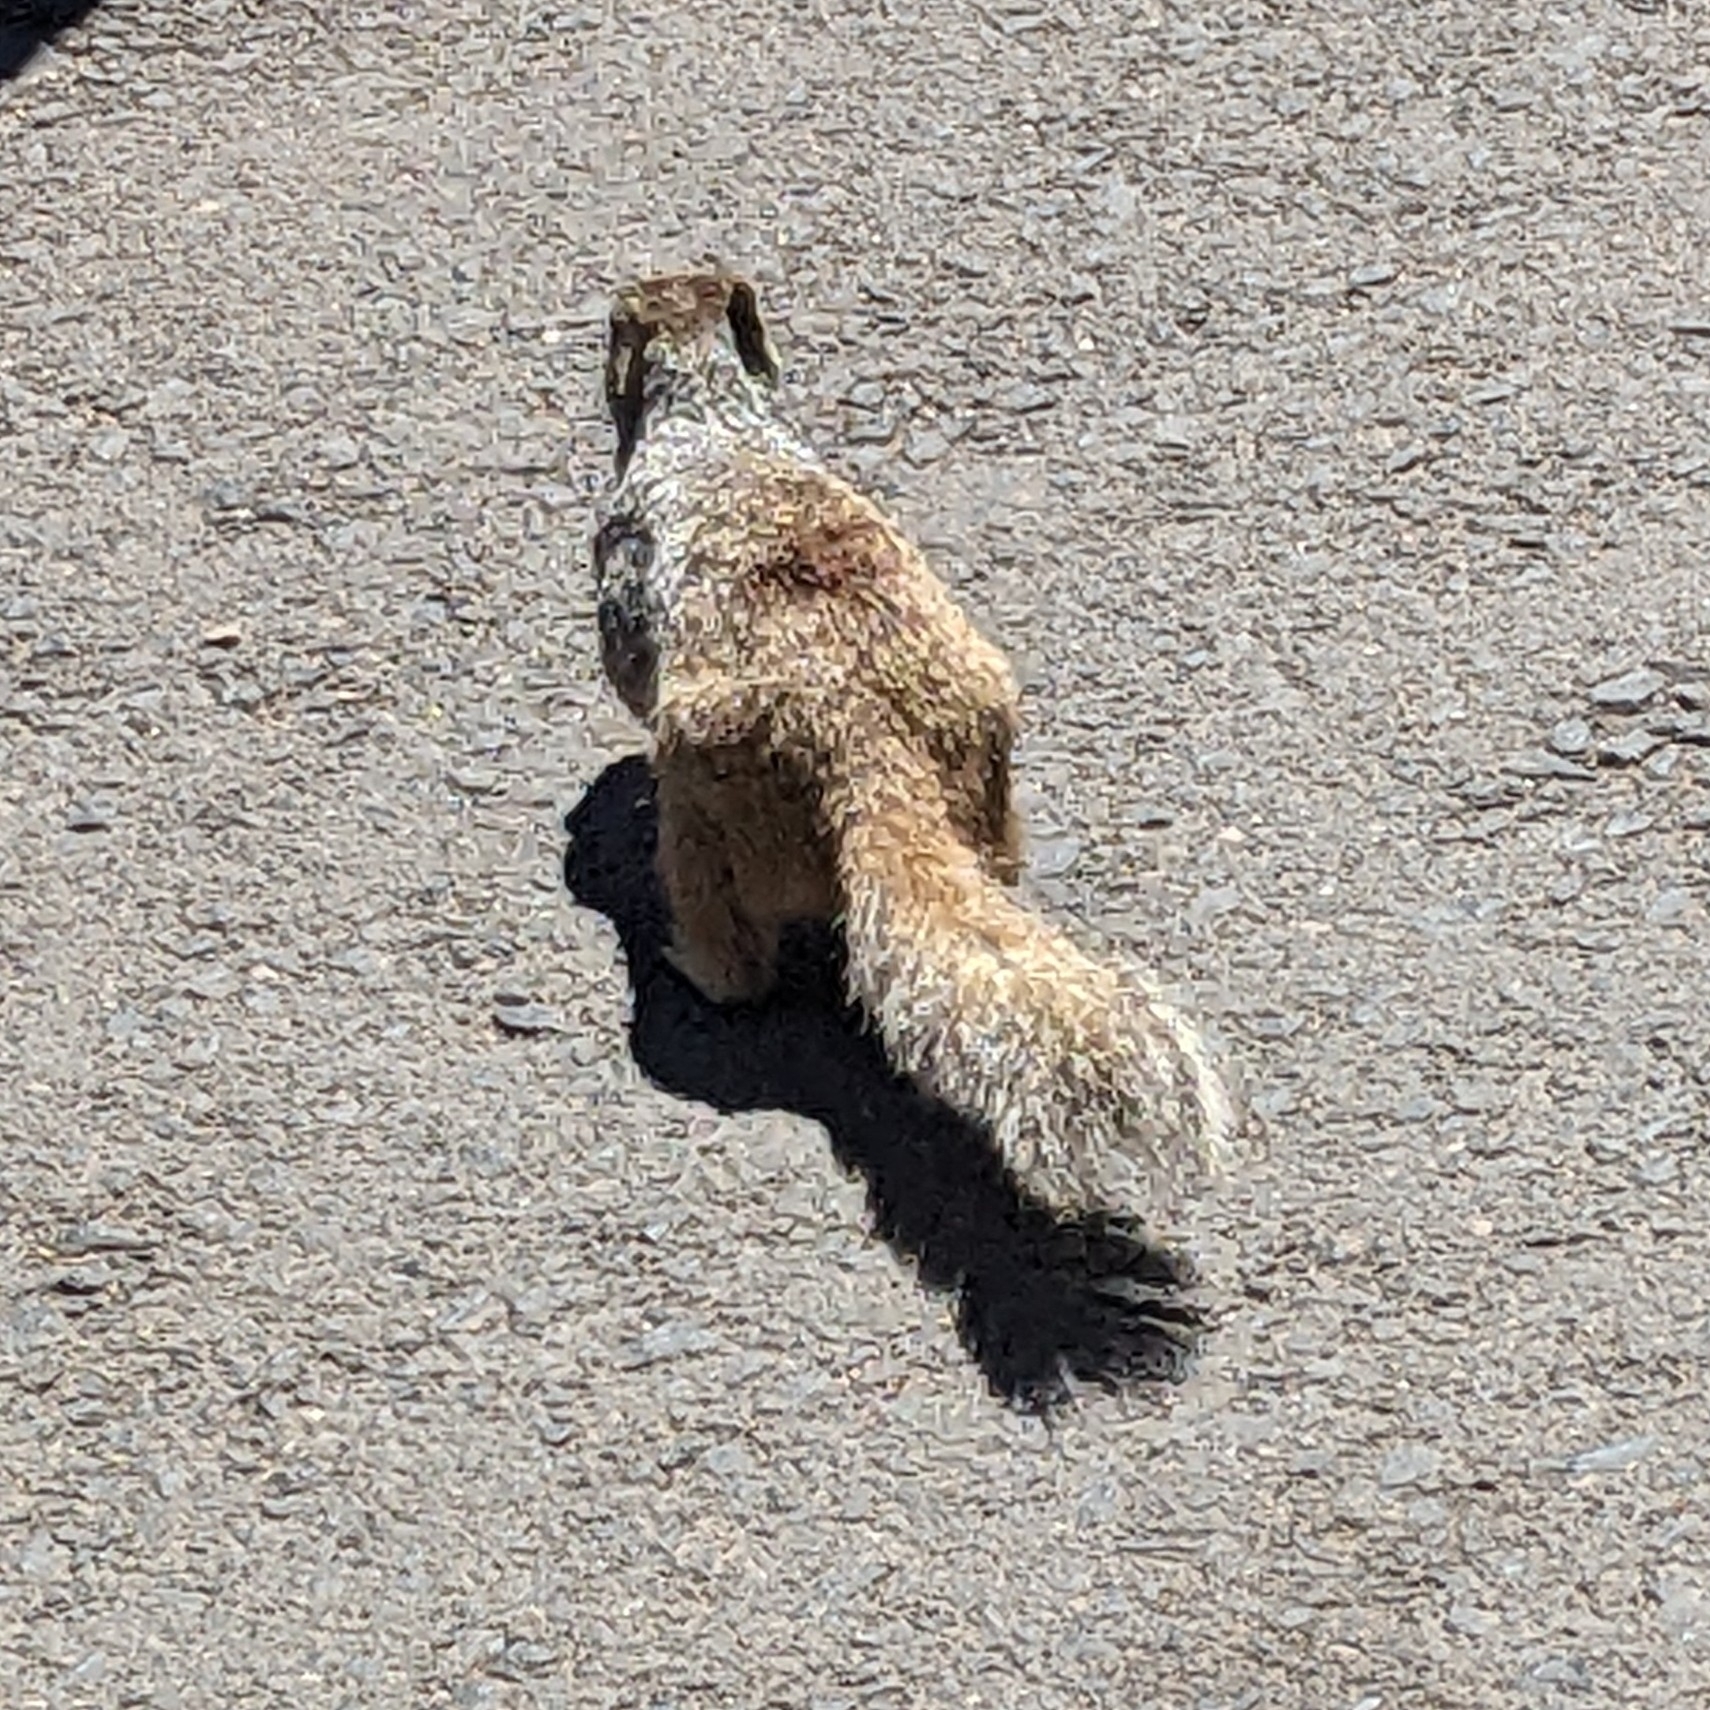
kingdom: Animalia
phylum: Chordata
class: Mammalia
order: Rodentia
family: Sciuridae
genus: Otospermophilus
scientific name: Otospermophilus variegatus
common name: Rock squirrel
